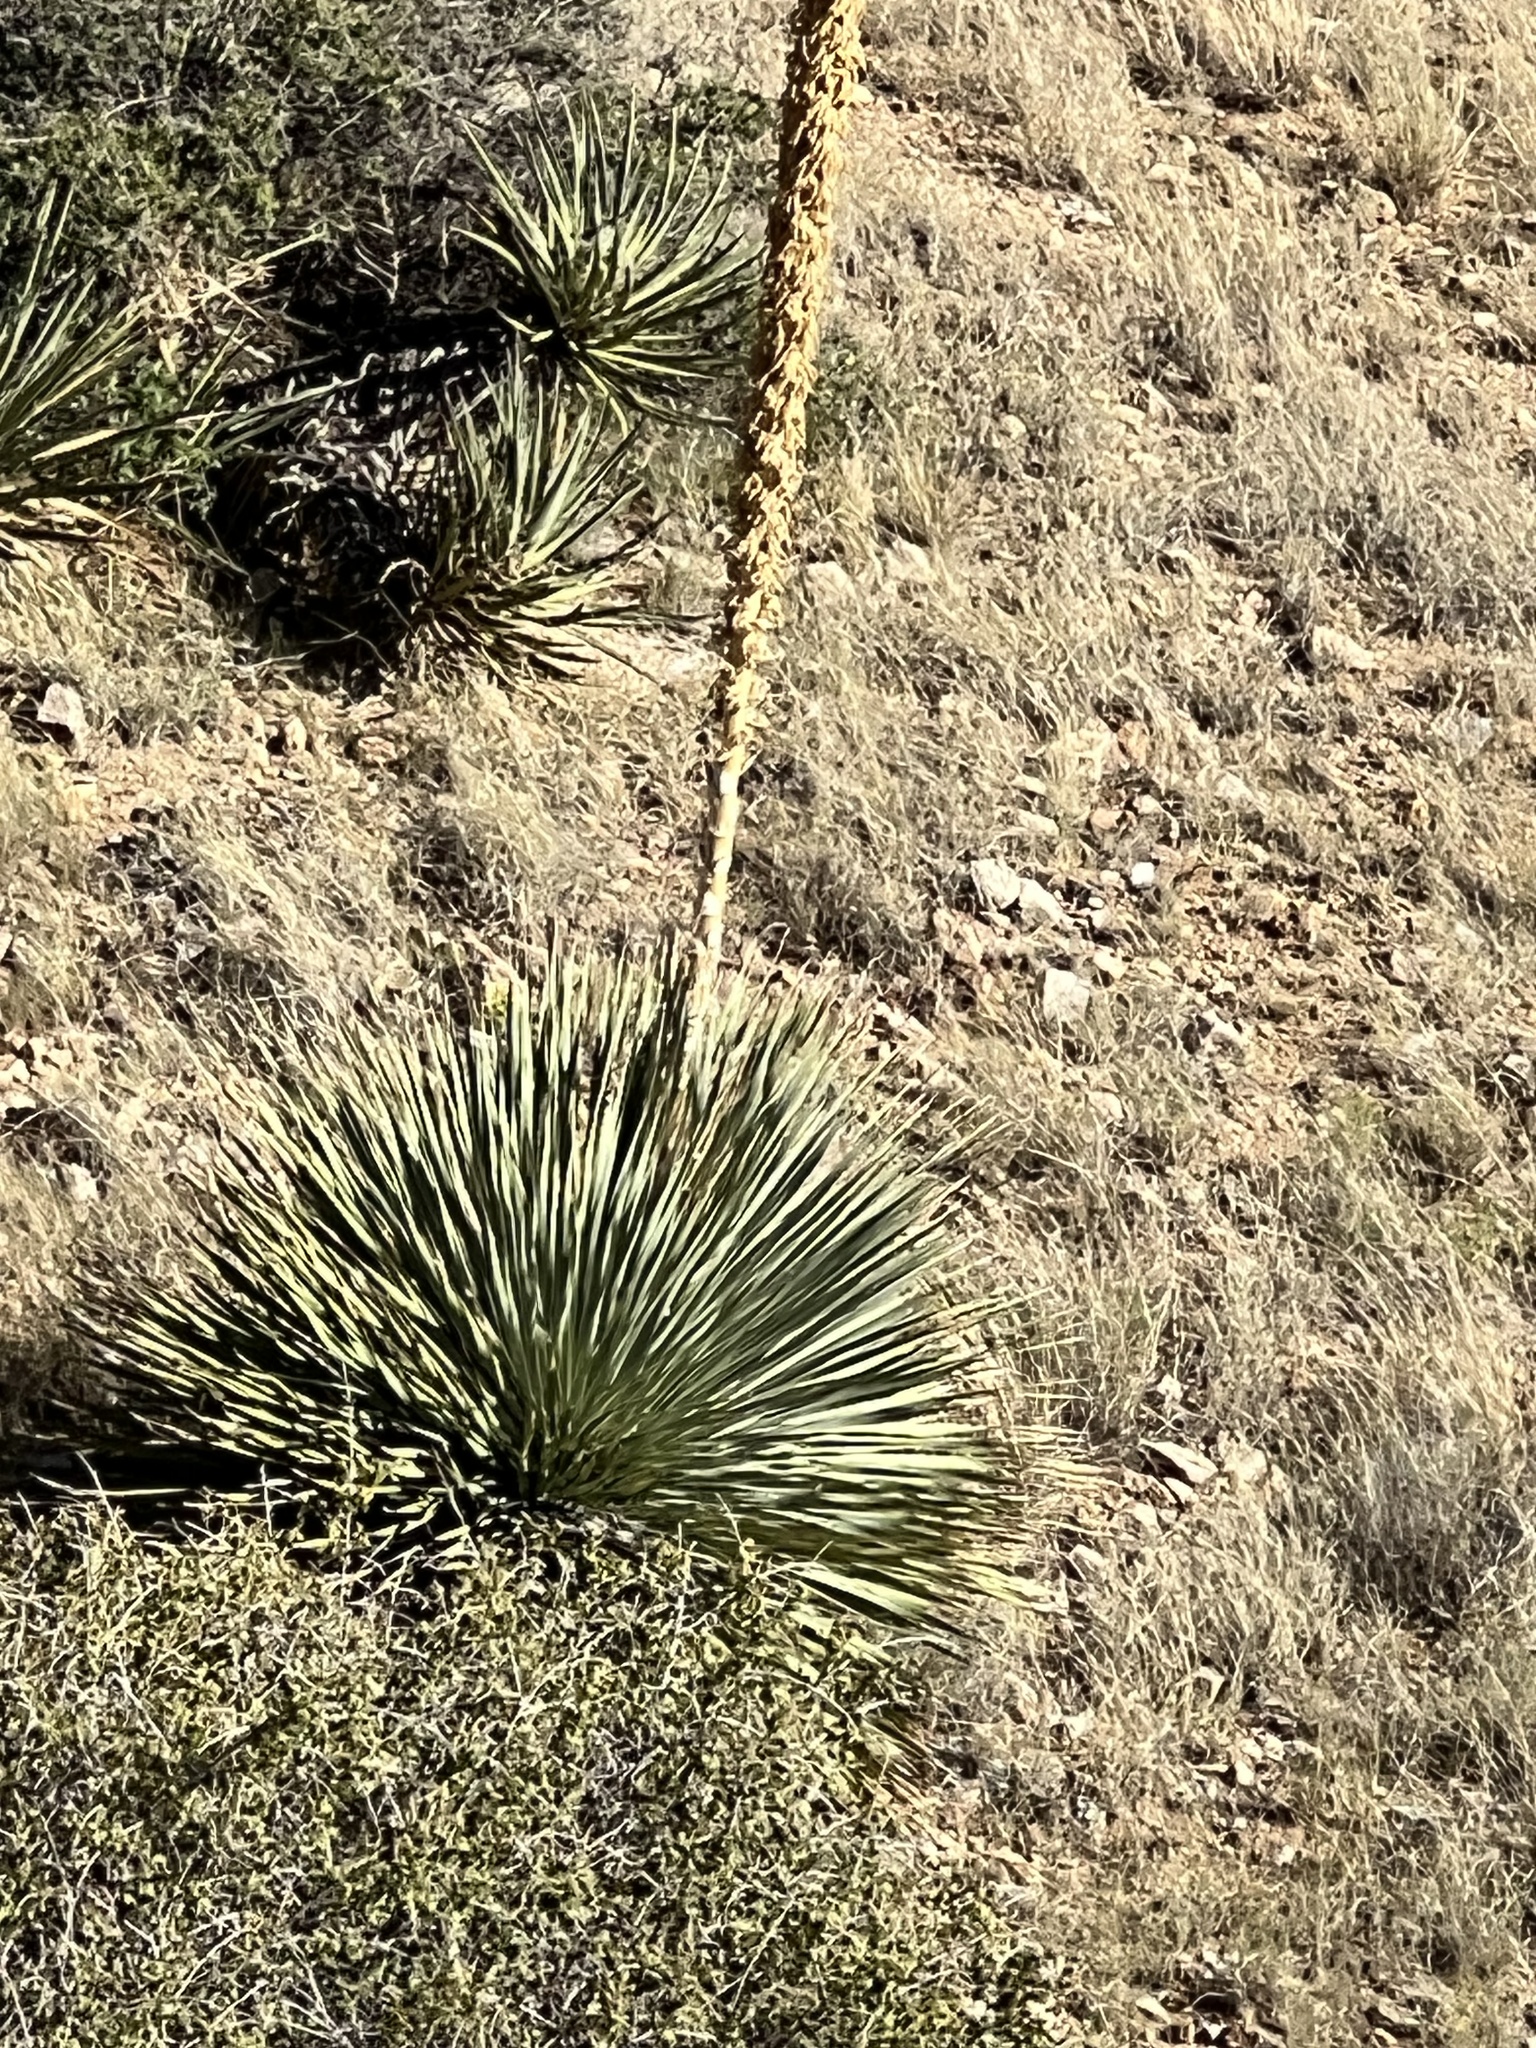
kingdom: Plantae
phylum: Tracheophyta
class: Liliopsida
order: Asparagales
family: Asparagaceae
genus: Dasylirion
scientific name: Dasylirion wheeleri
